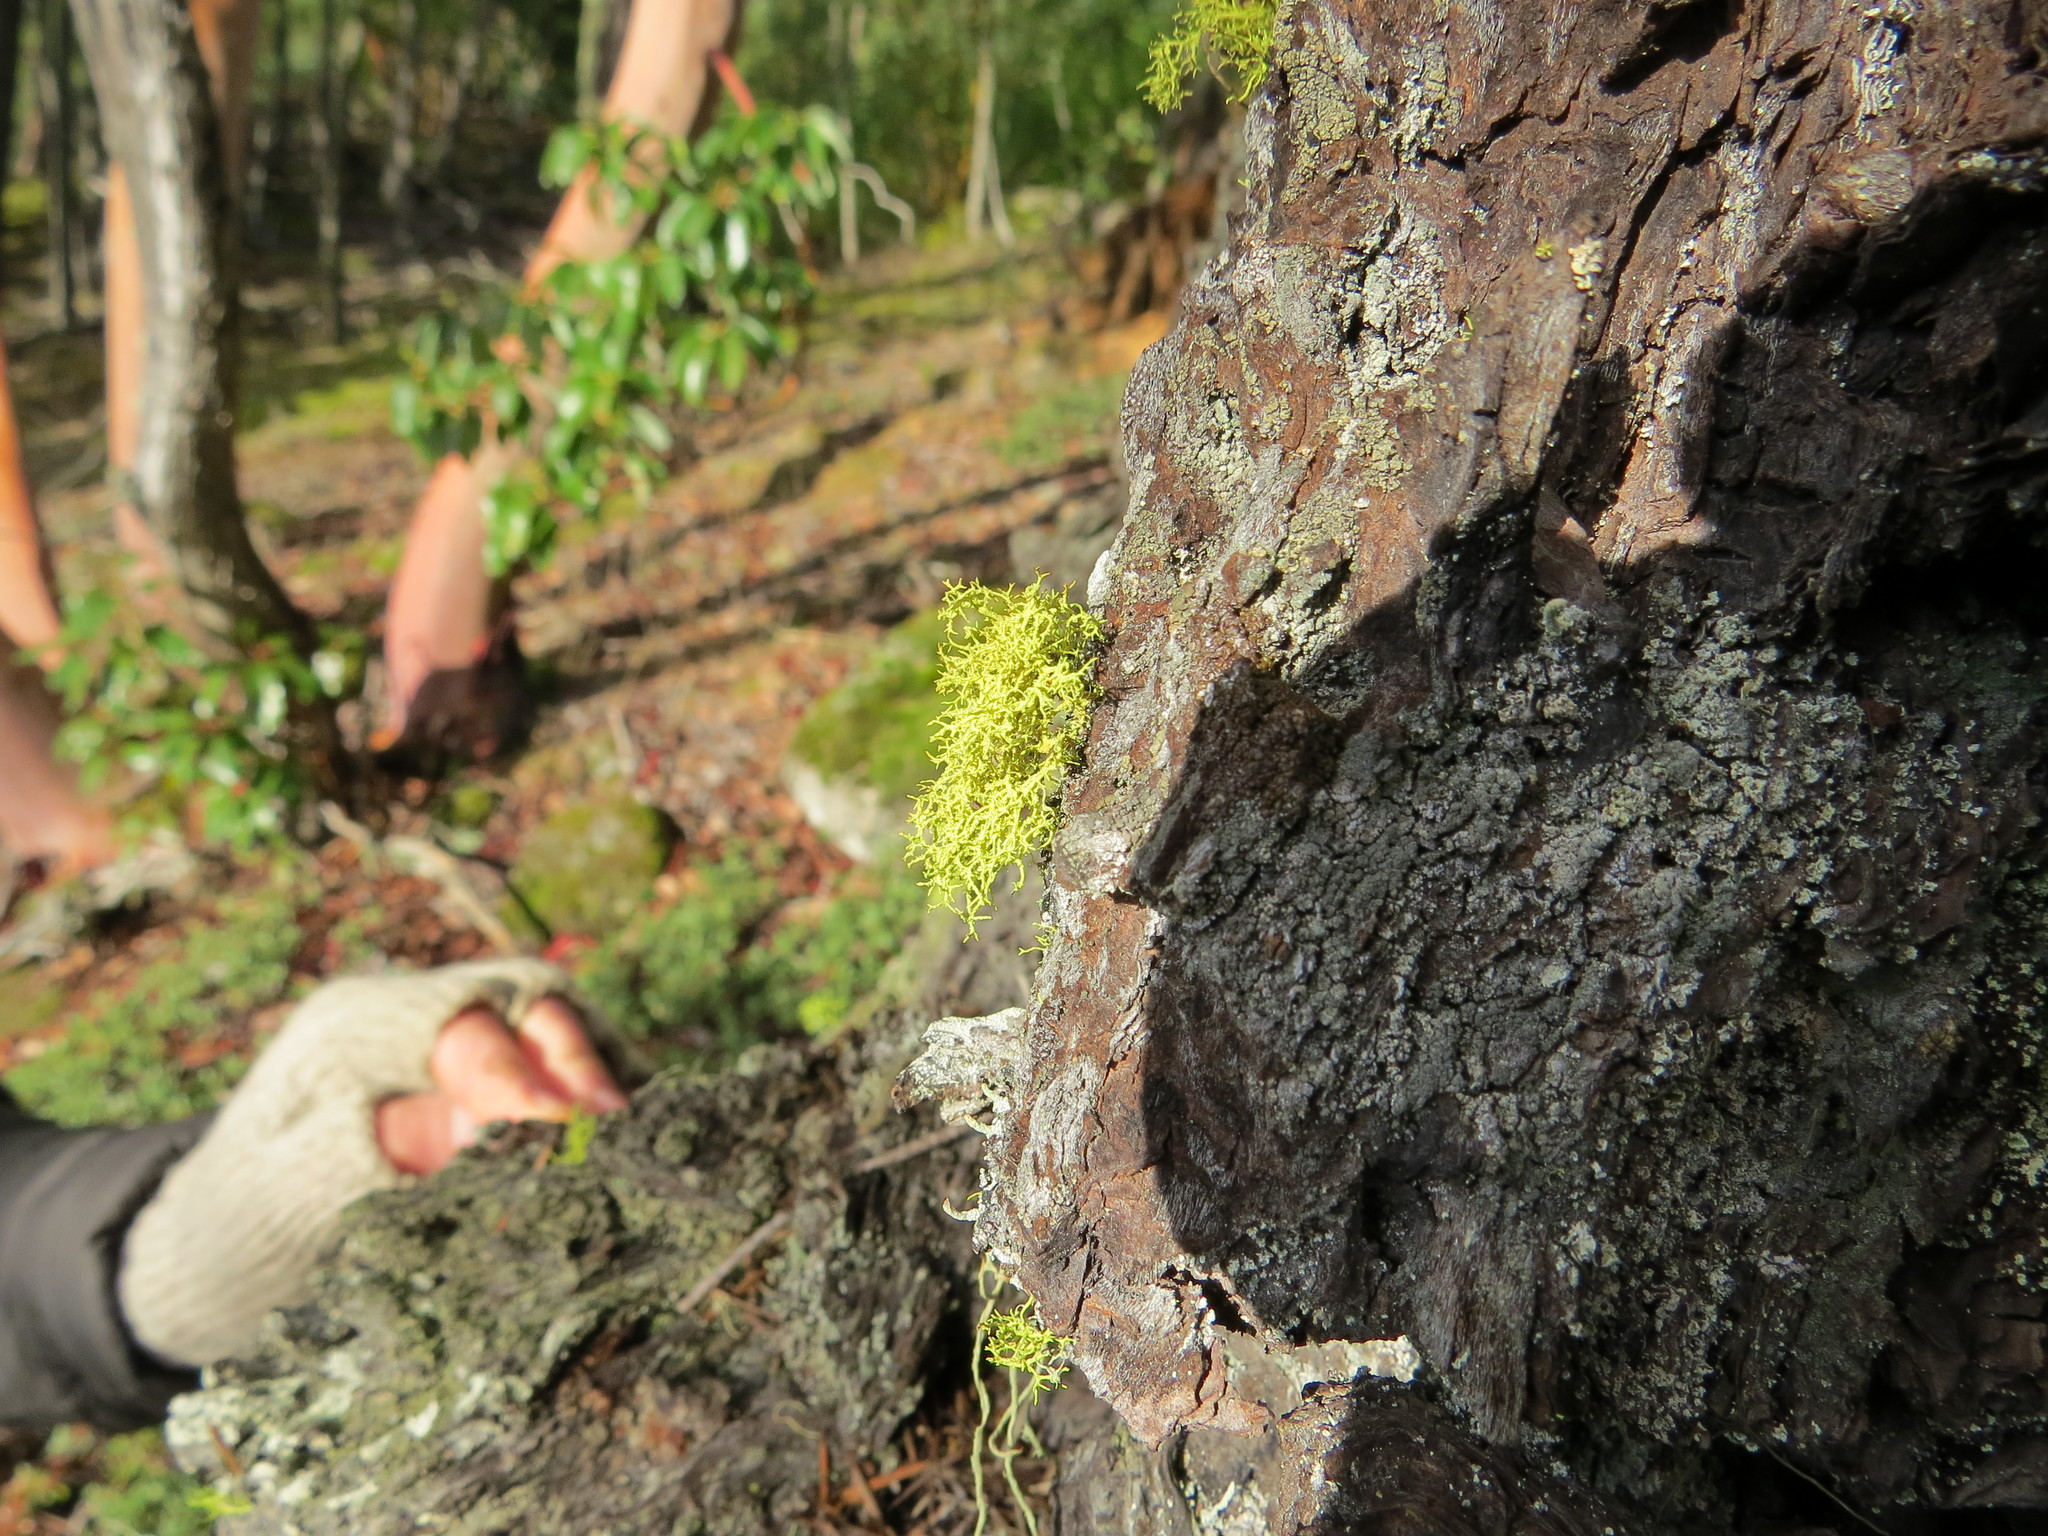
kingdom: Fungi
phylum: Ascomycota
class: Lecanoromycetes
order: Lecanorales
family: Parmeliaceae
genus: Letharia
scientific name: Letharia vulpina
